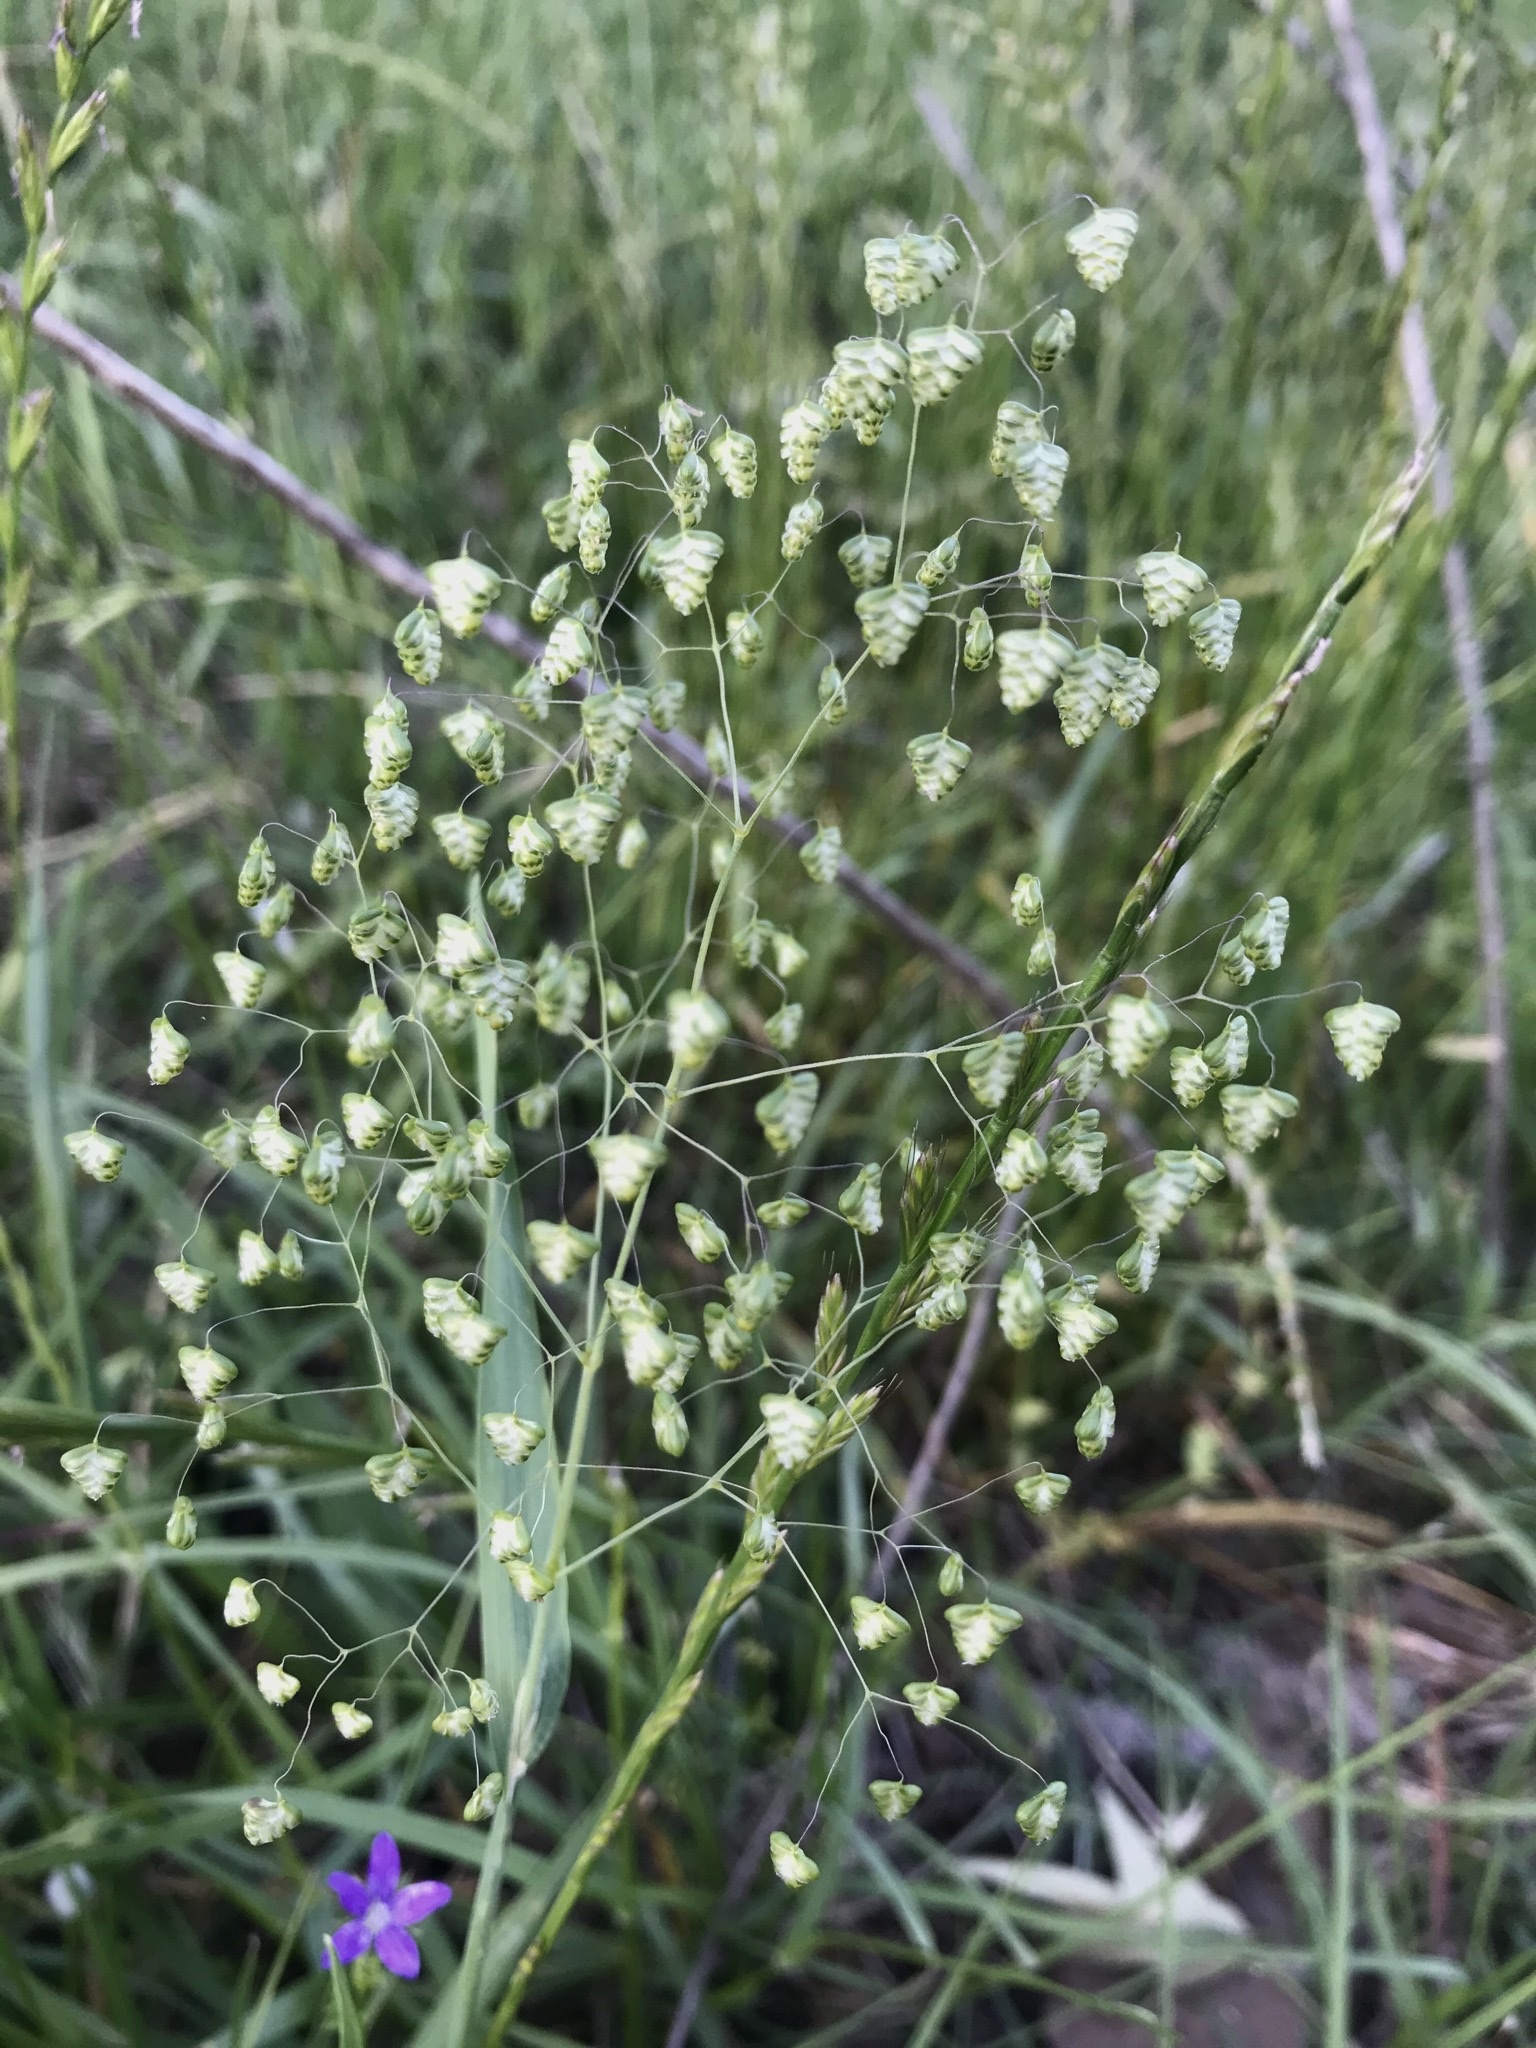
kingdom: Plantae
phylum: Tracheophyta
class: Liliopsida
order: Poales
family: Poaceae
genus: Briza
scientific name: Briza minor
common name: Lesser quaking-grass
